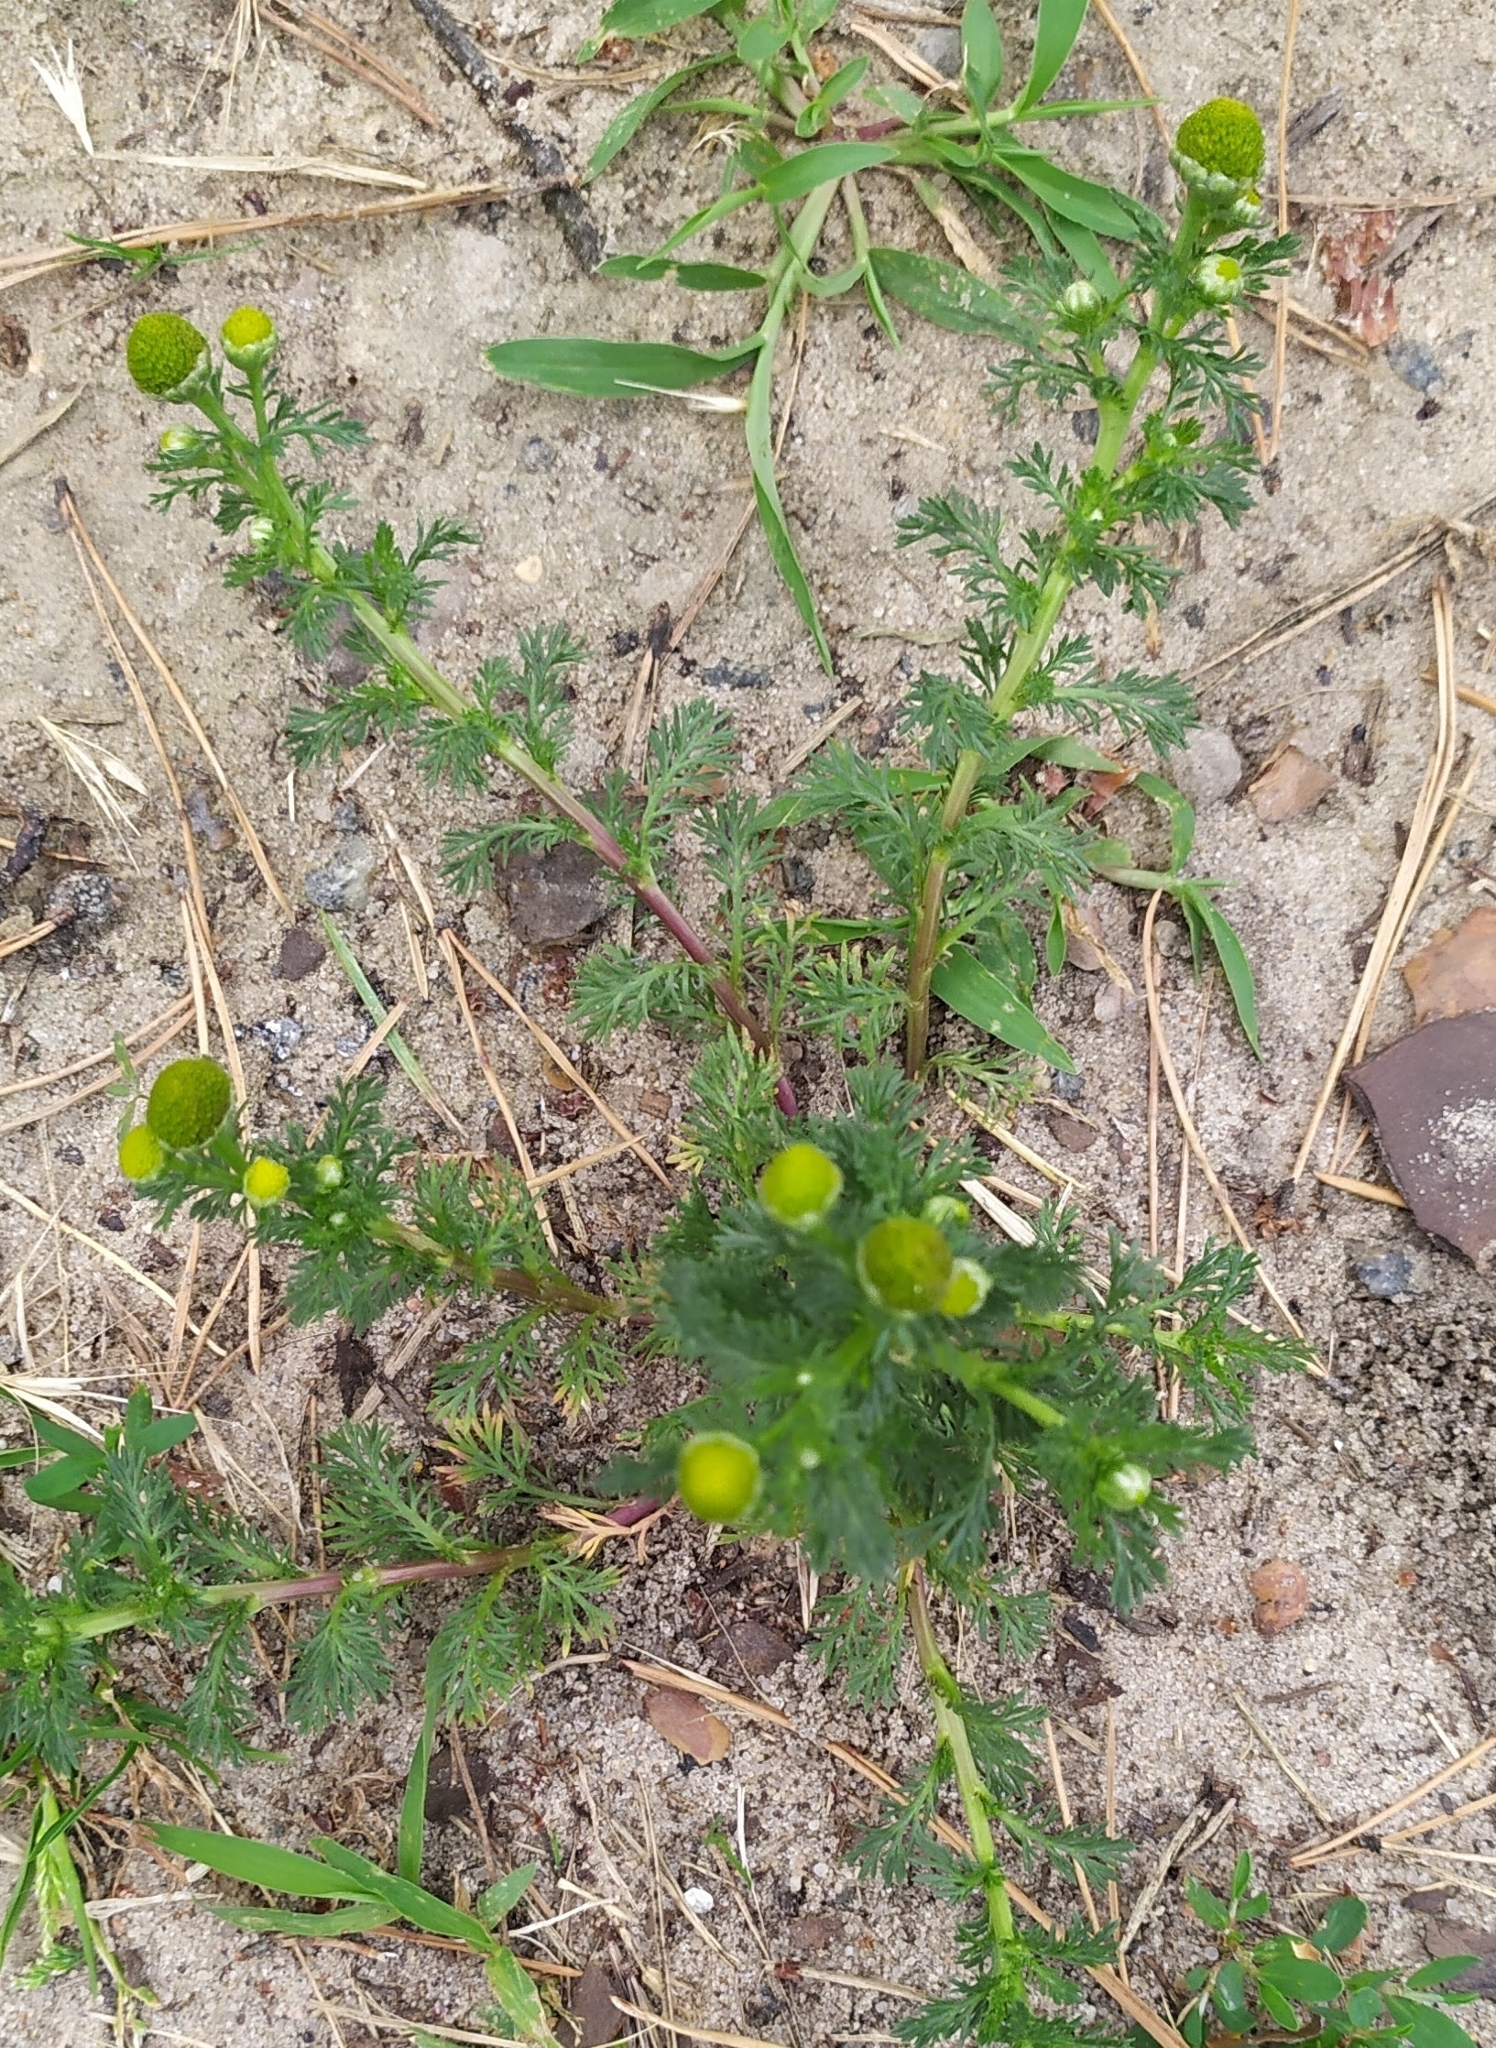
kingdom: Plantae
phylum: Tracheophyta
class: Magnoliopsida
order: Asterales
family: Asteraceae
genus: Matricaria
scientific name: Matricaria discoidea
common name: Disc mayweed
